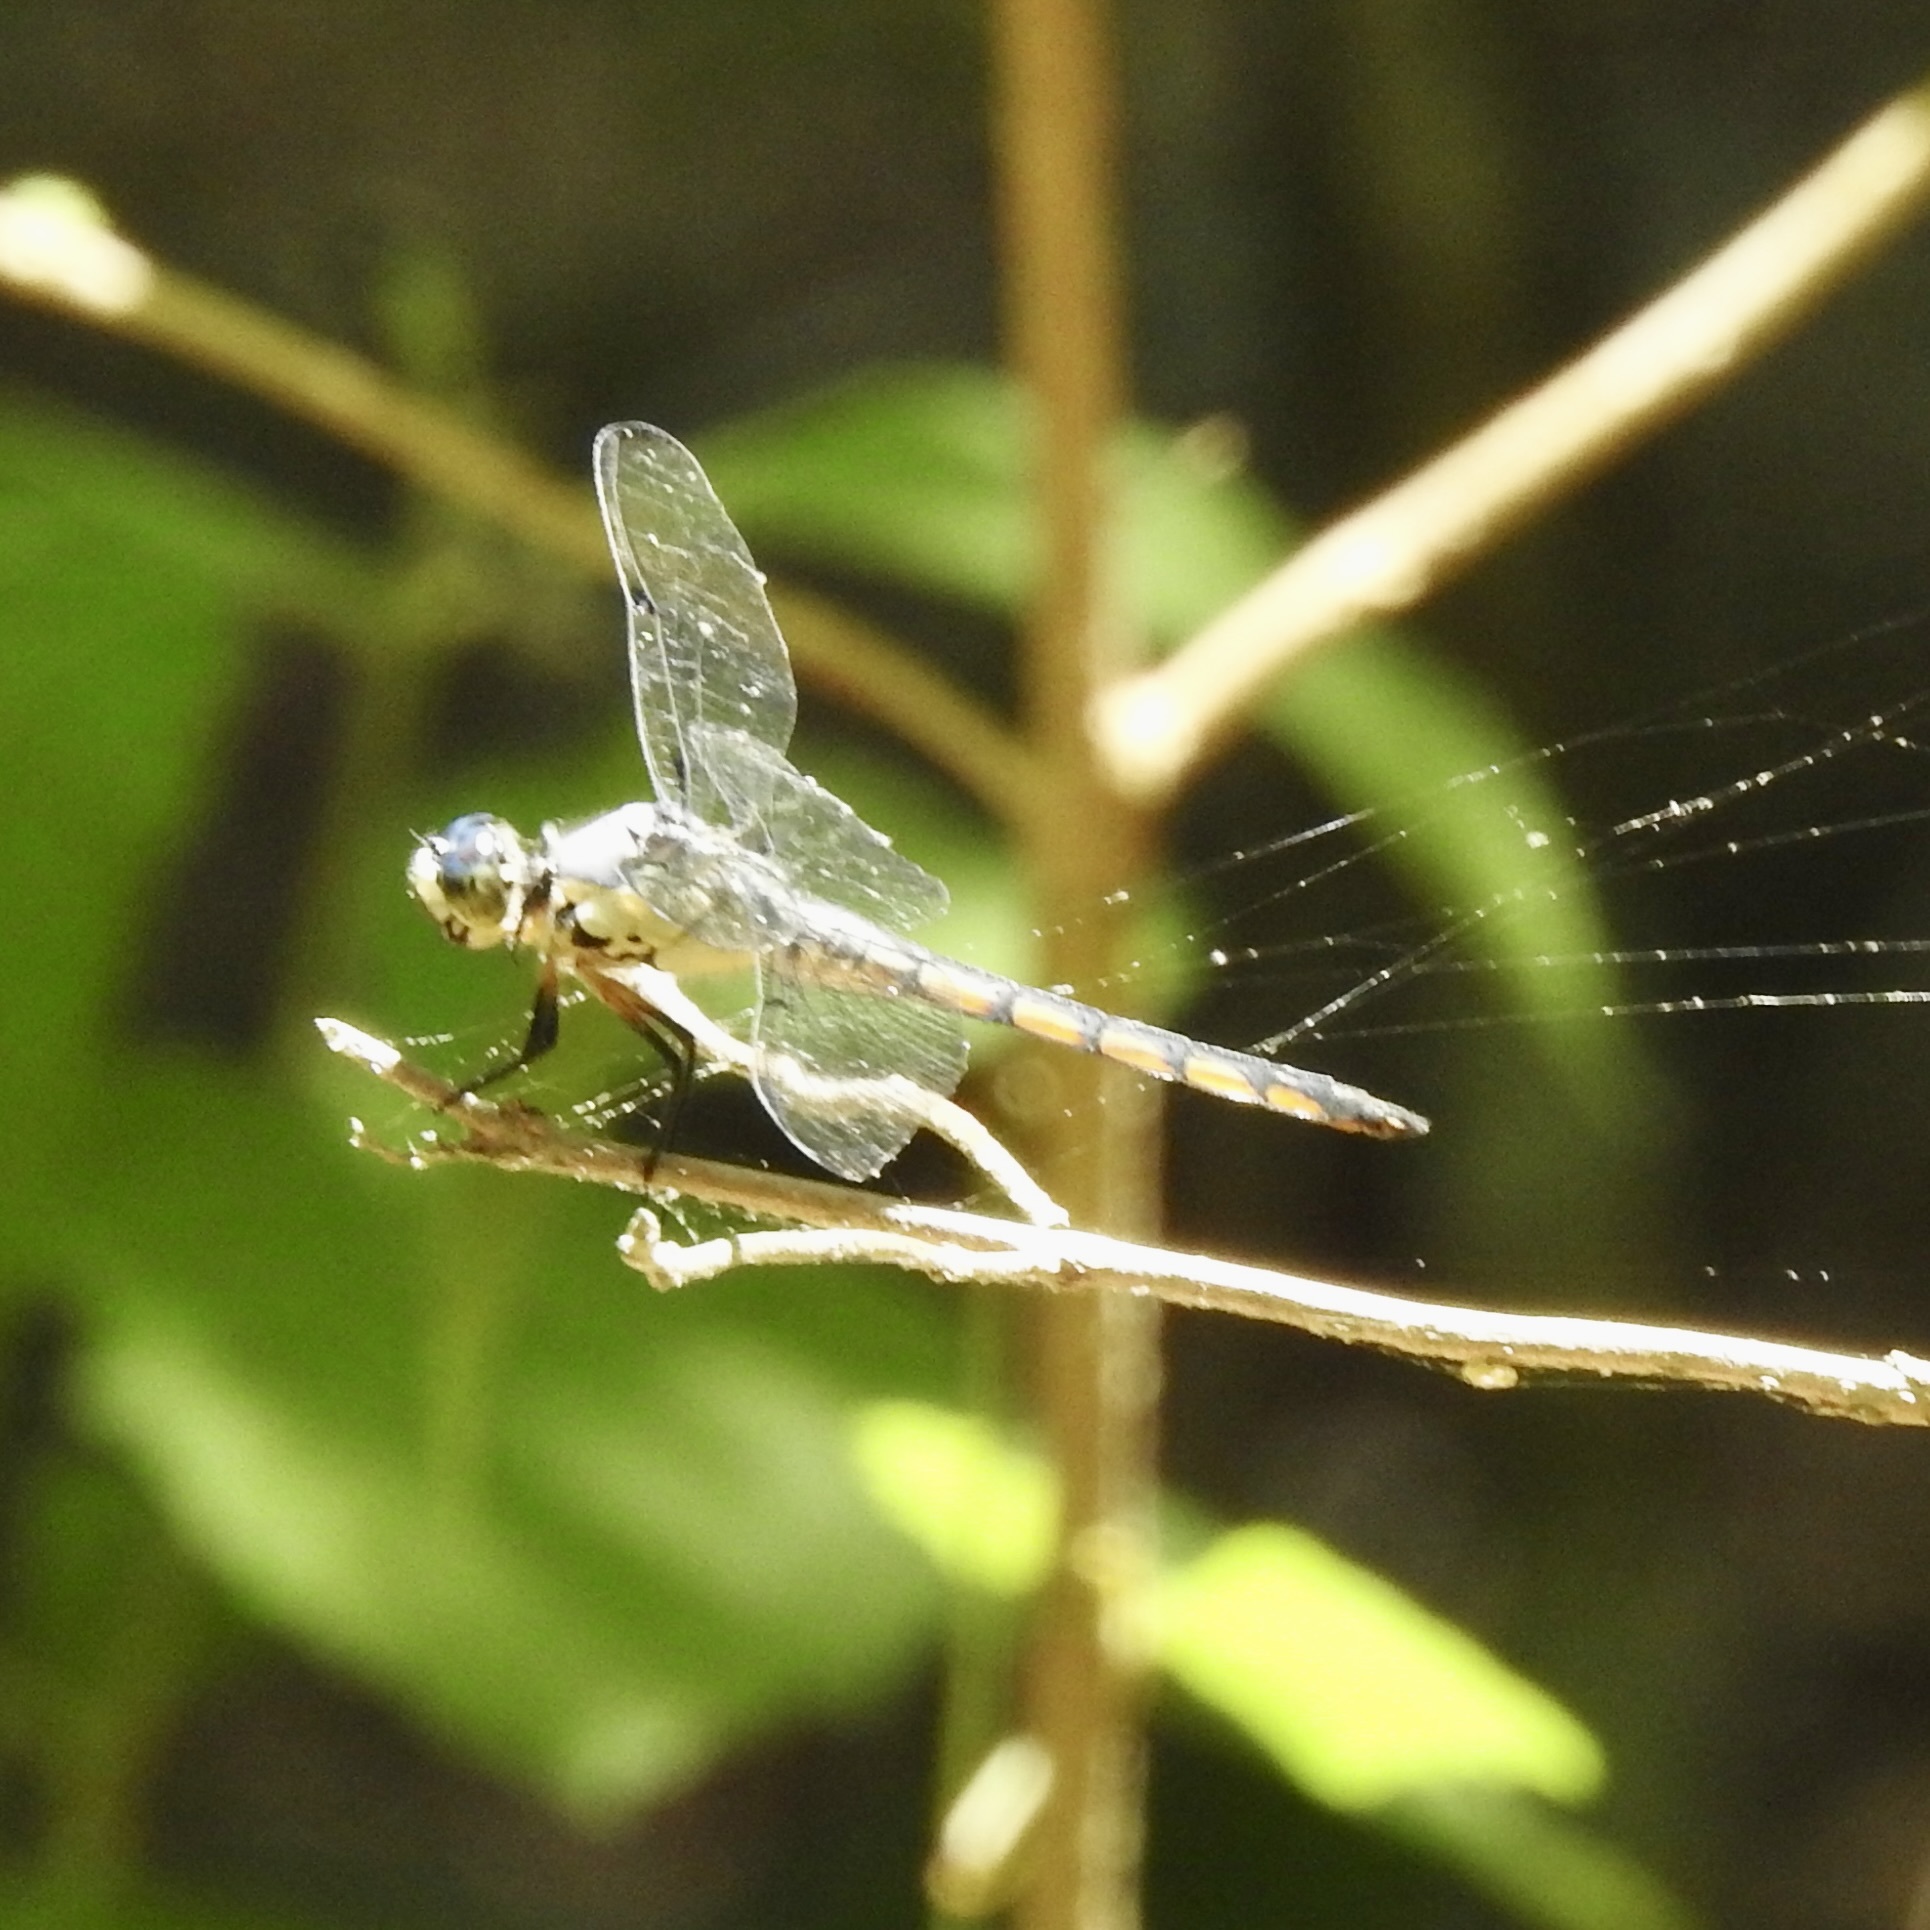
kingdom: Animalia
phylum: Arthropoda
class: Insecta
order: Odonata
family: Libellulidae
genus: Libellula
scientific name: Libellula vibrans
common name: Great blue skimmer
